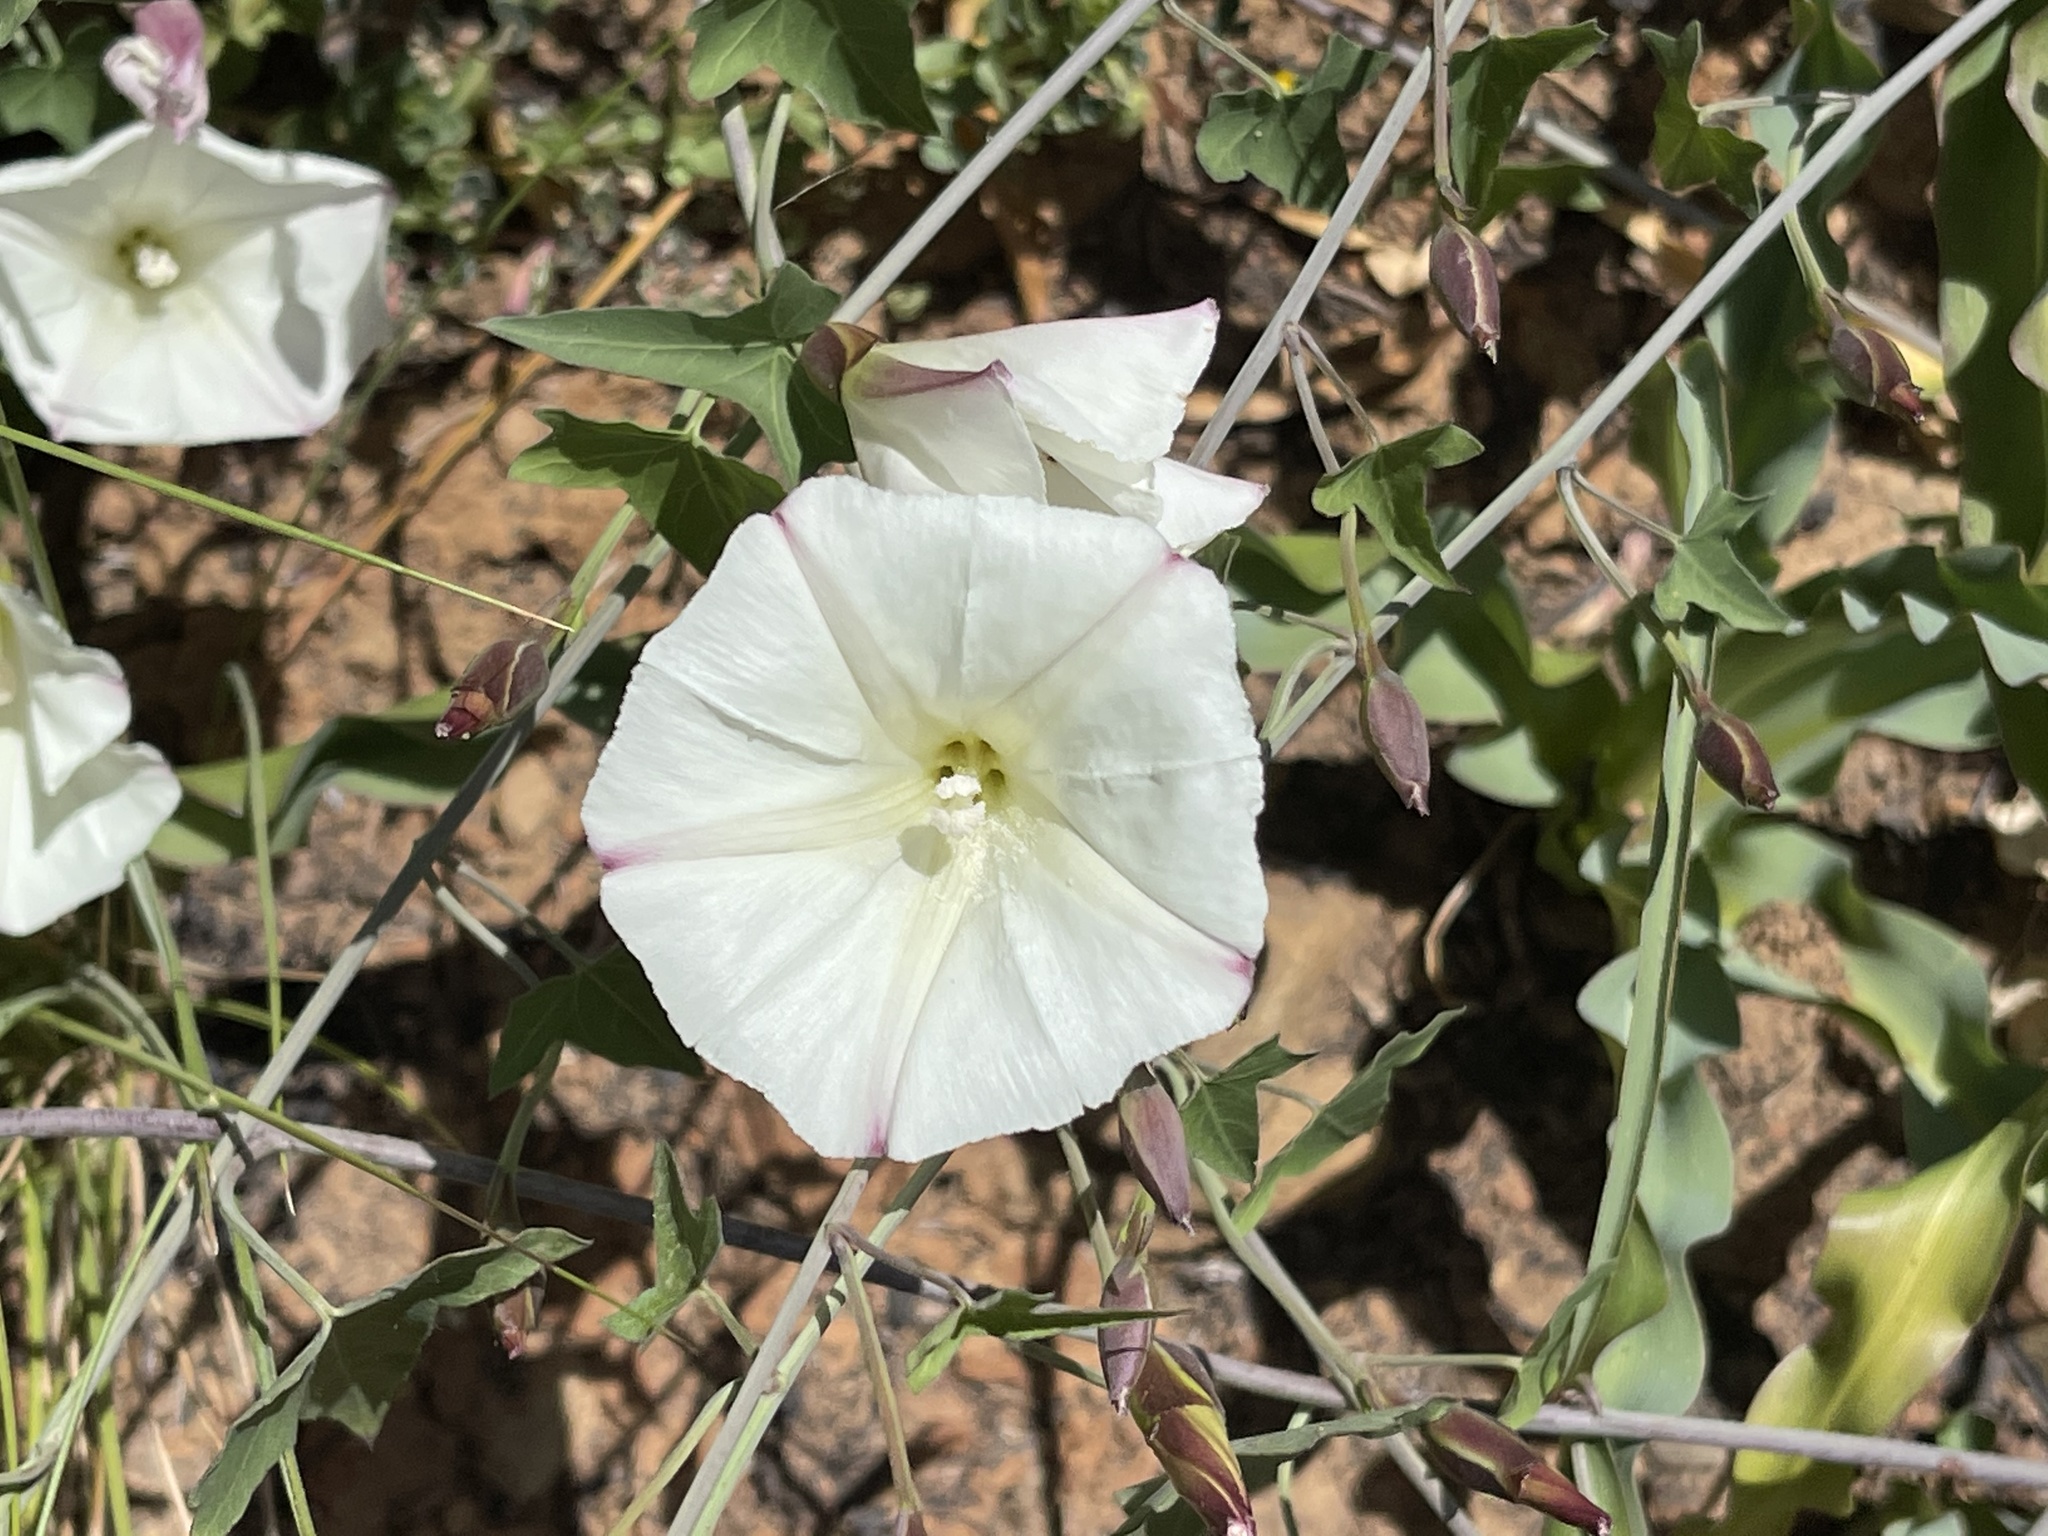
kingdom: Plantae
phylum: Tracheophyta
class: Magnoliopsida
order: Solanales
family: Convolvulaceae
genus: Calystegia
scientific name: Calystegia purpurata
